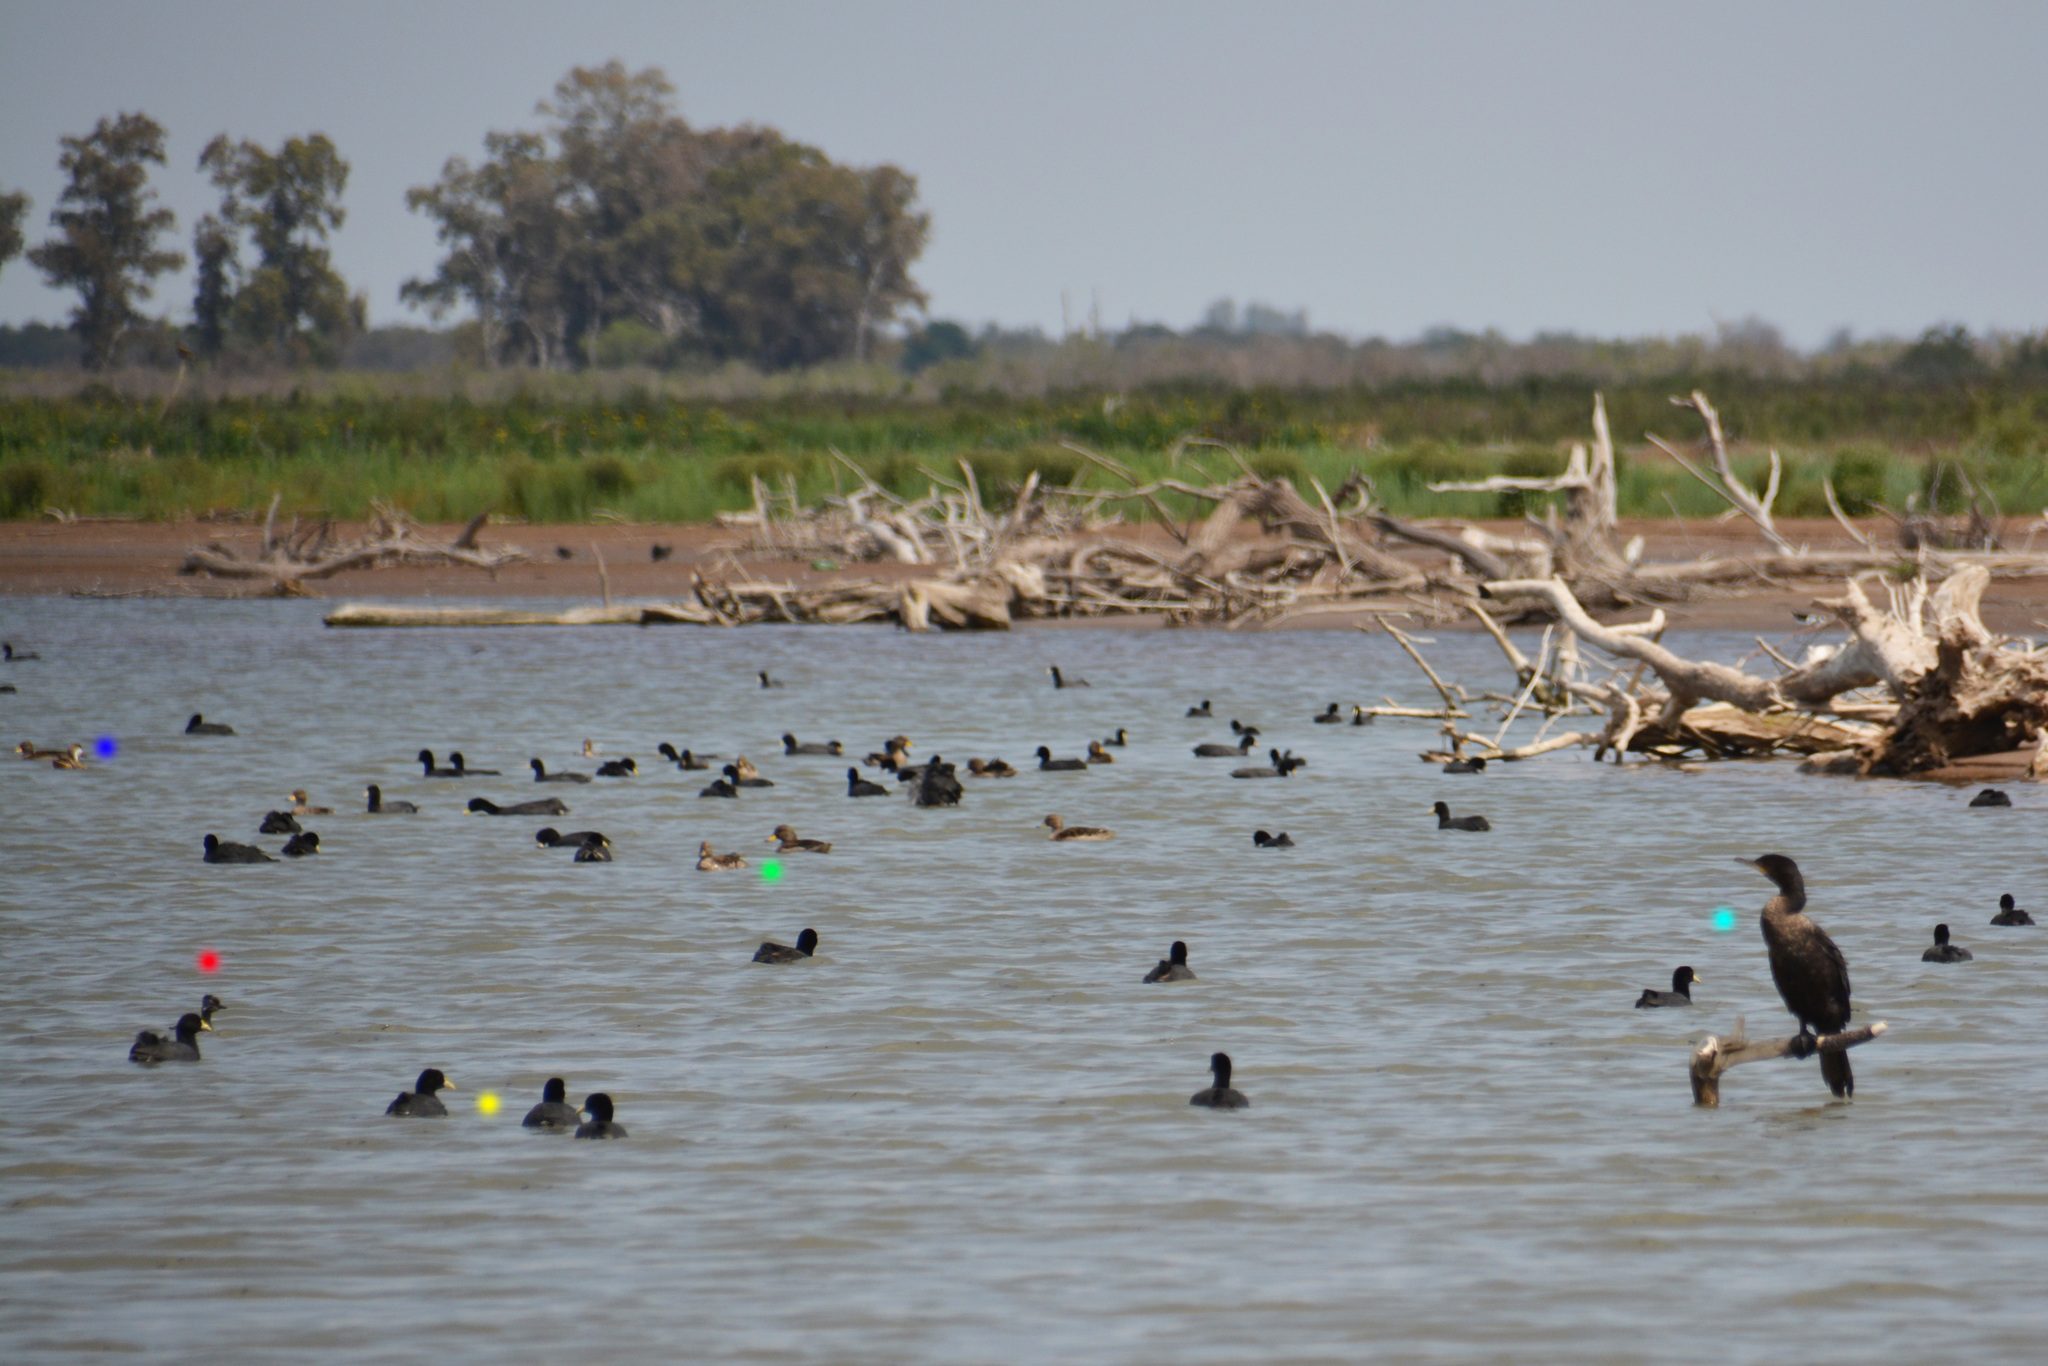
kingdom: Animalia
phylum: Chordata
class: Aves
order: Anseriformes
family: Anatidae
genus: Anas
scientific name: Anas bahamensis
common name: White-cheeked pintail
